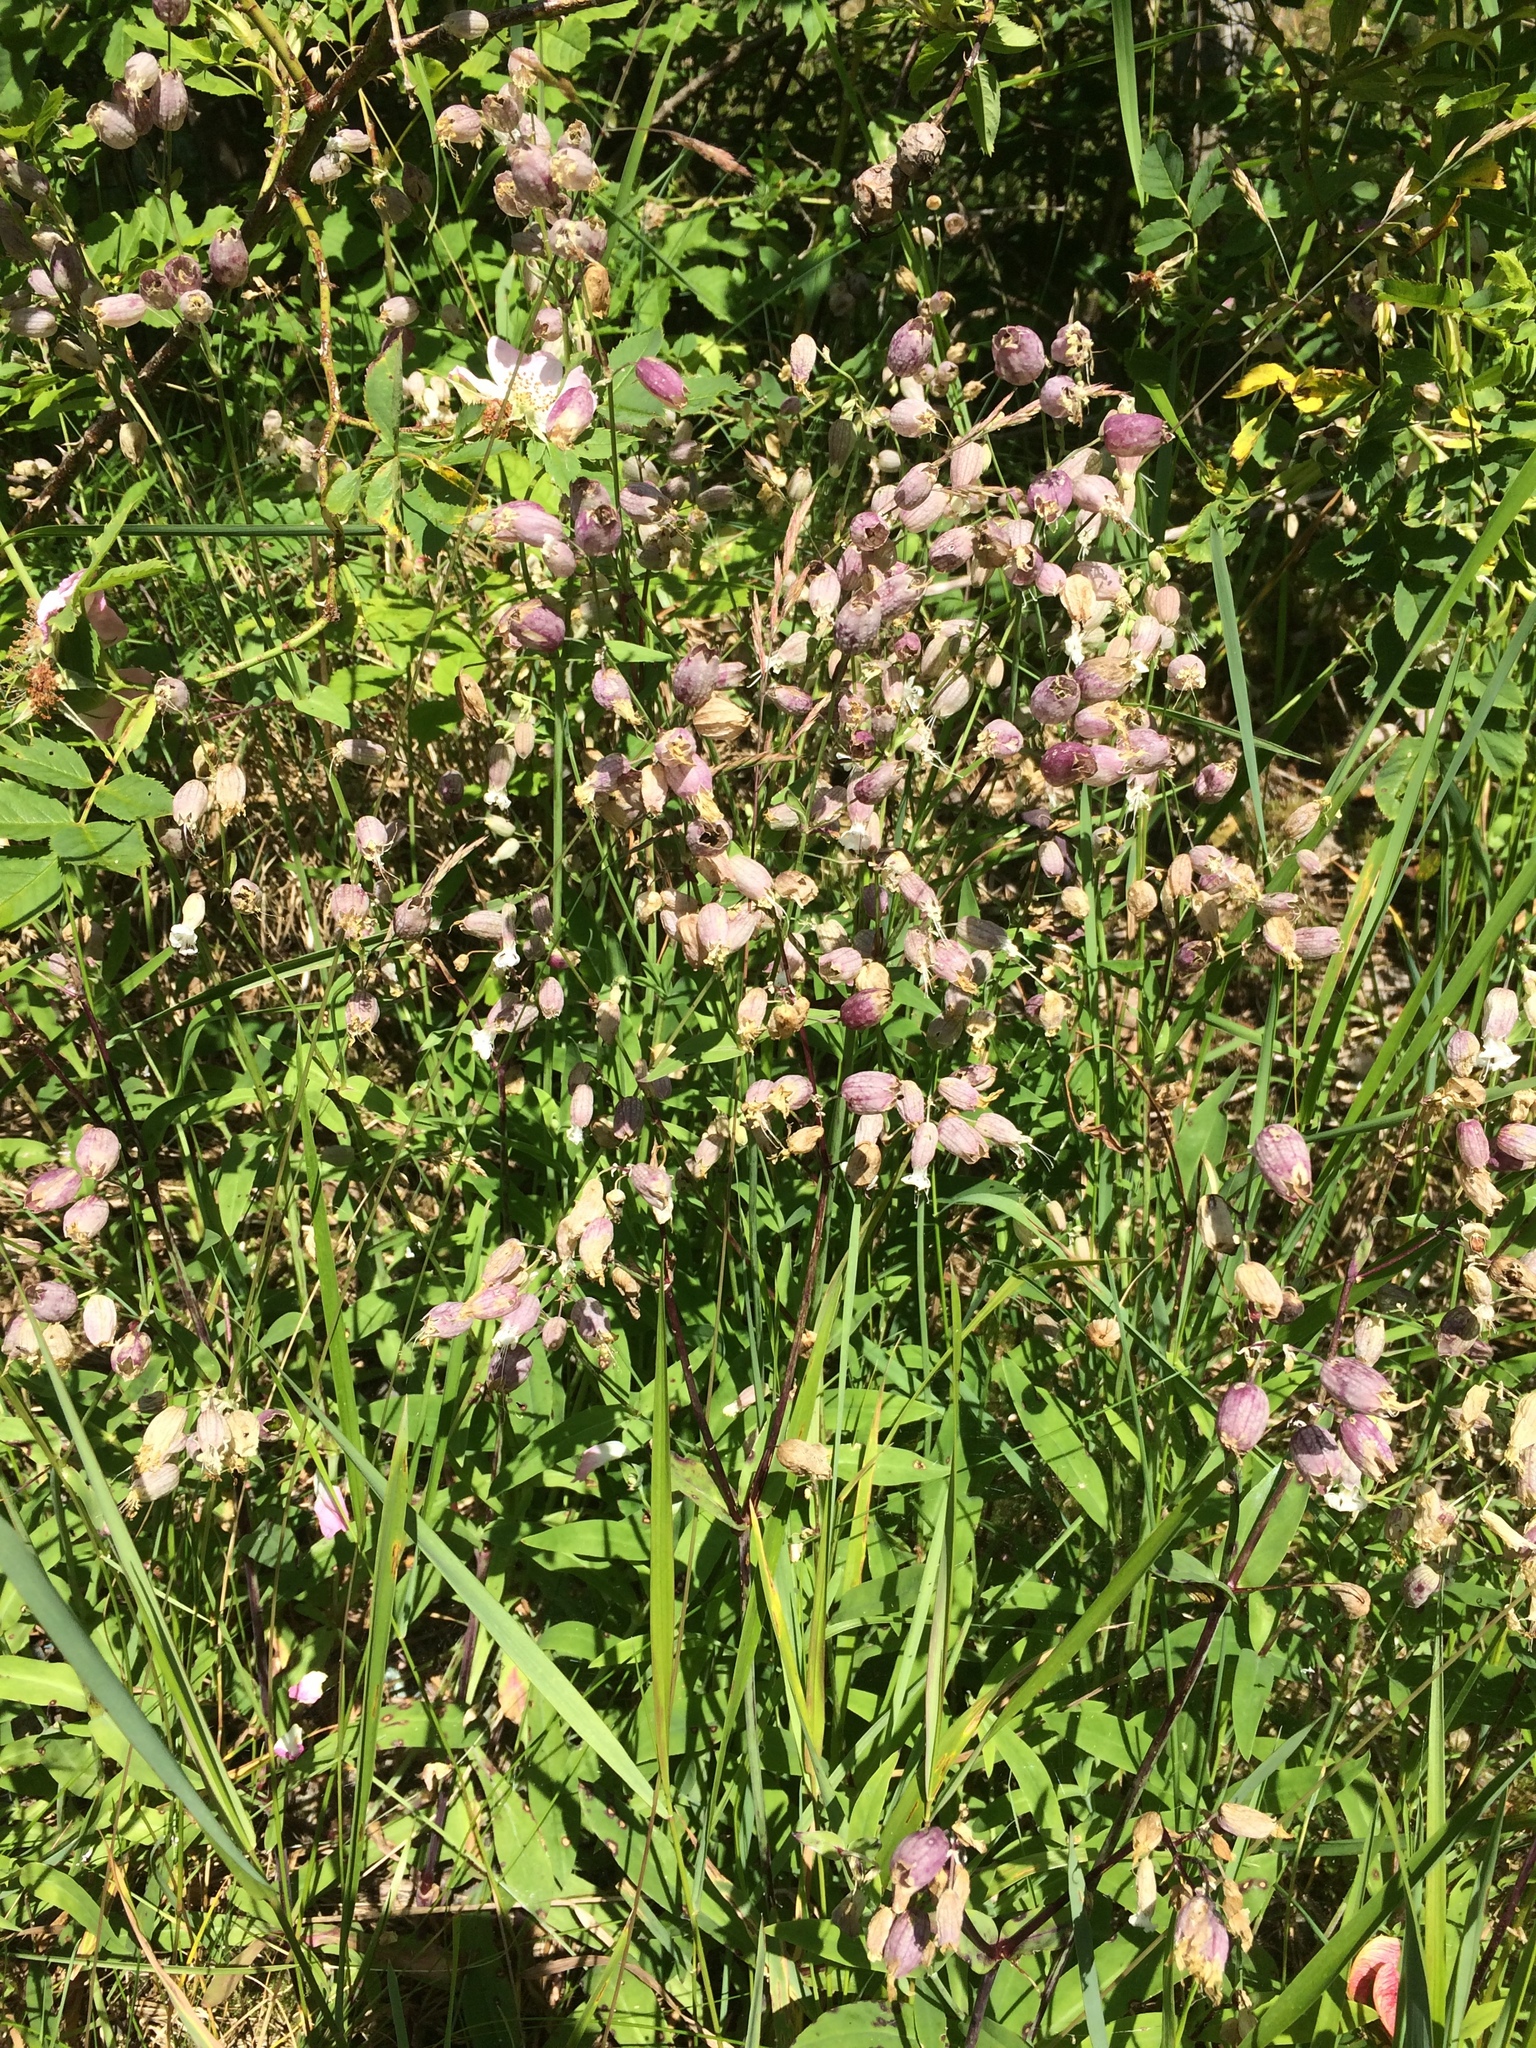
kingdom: Plantae
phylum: Tracheophyta
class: Magnoliopsida
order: Caryophyllales
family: Caryophyllaceae
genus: Silene
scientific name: Silene vulgaris
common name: Bladder campion
